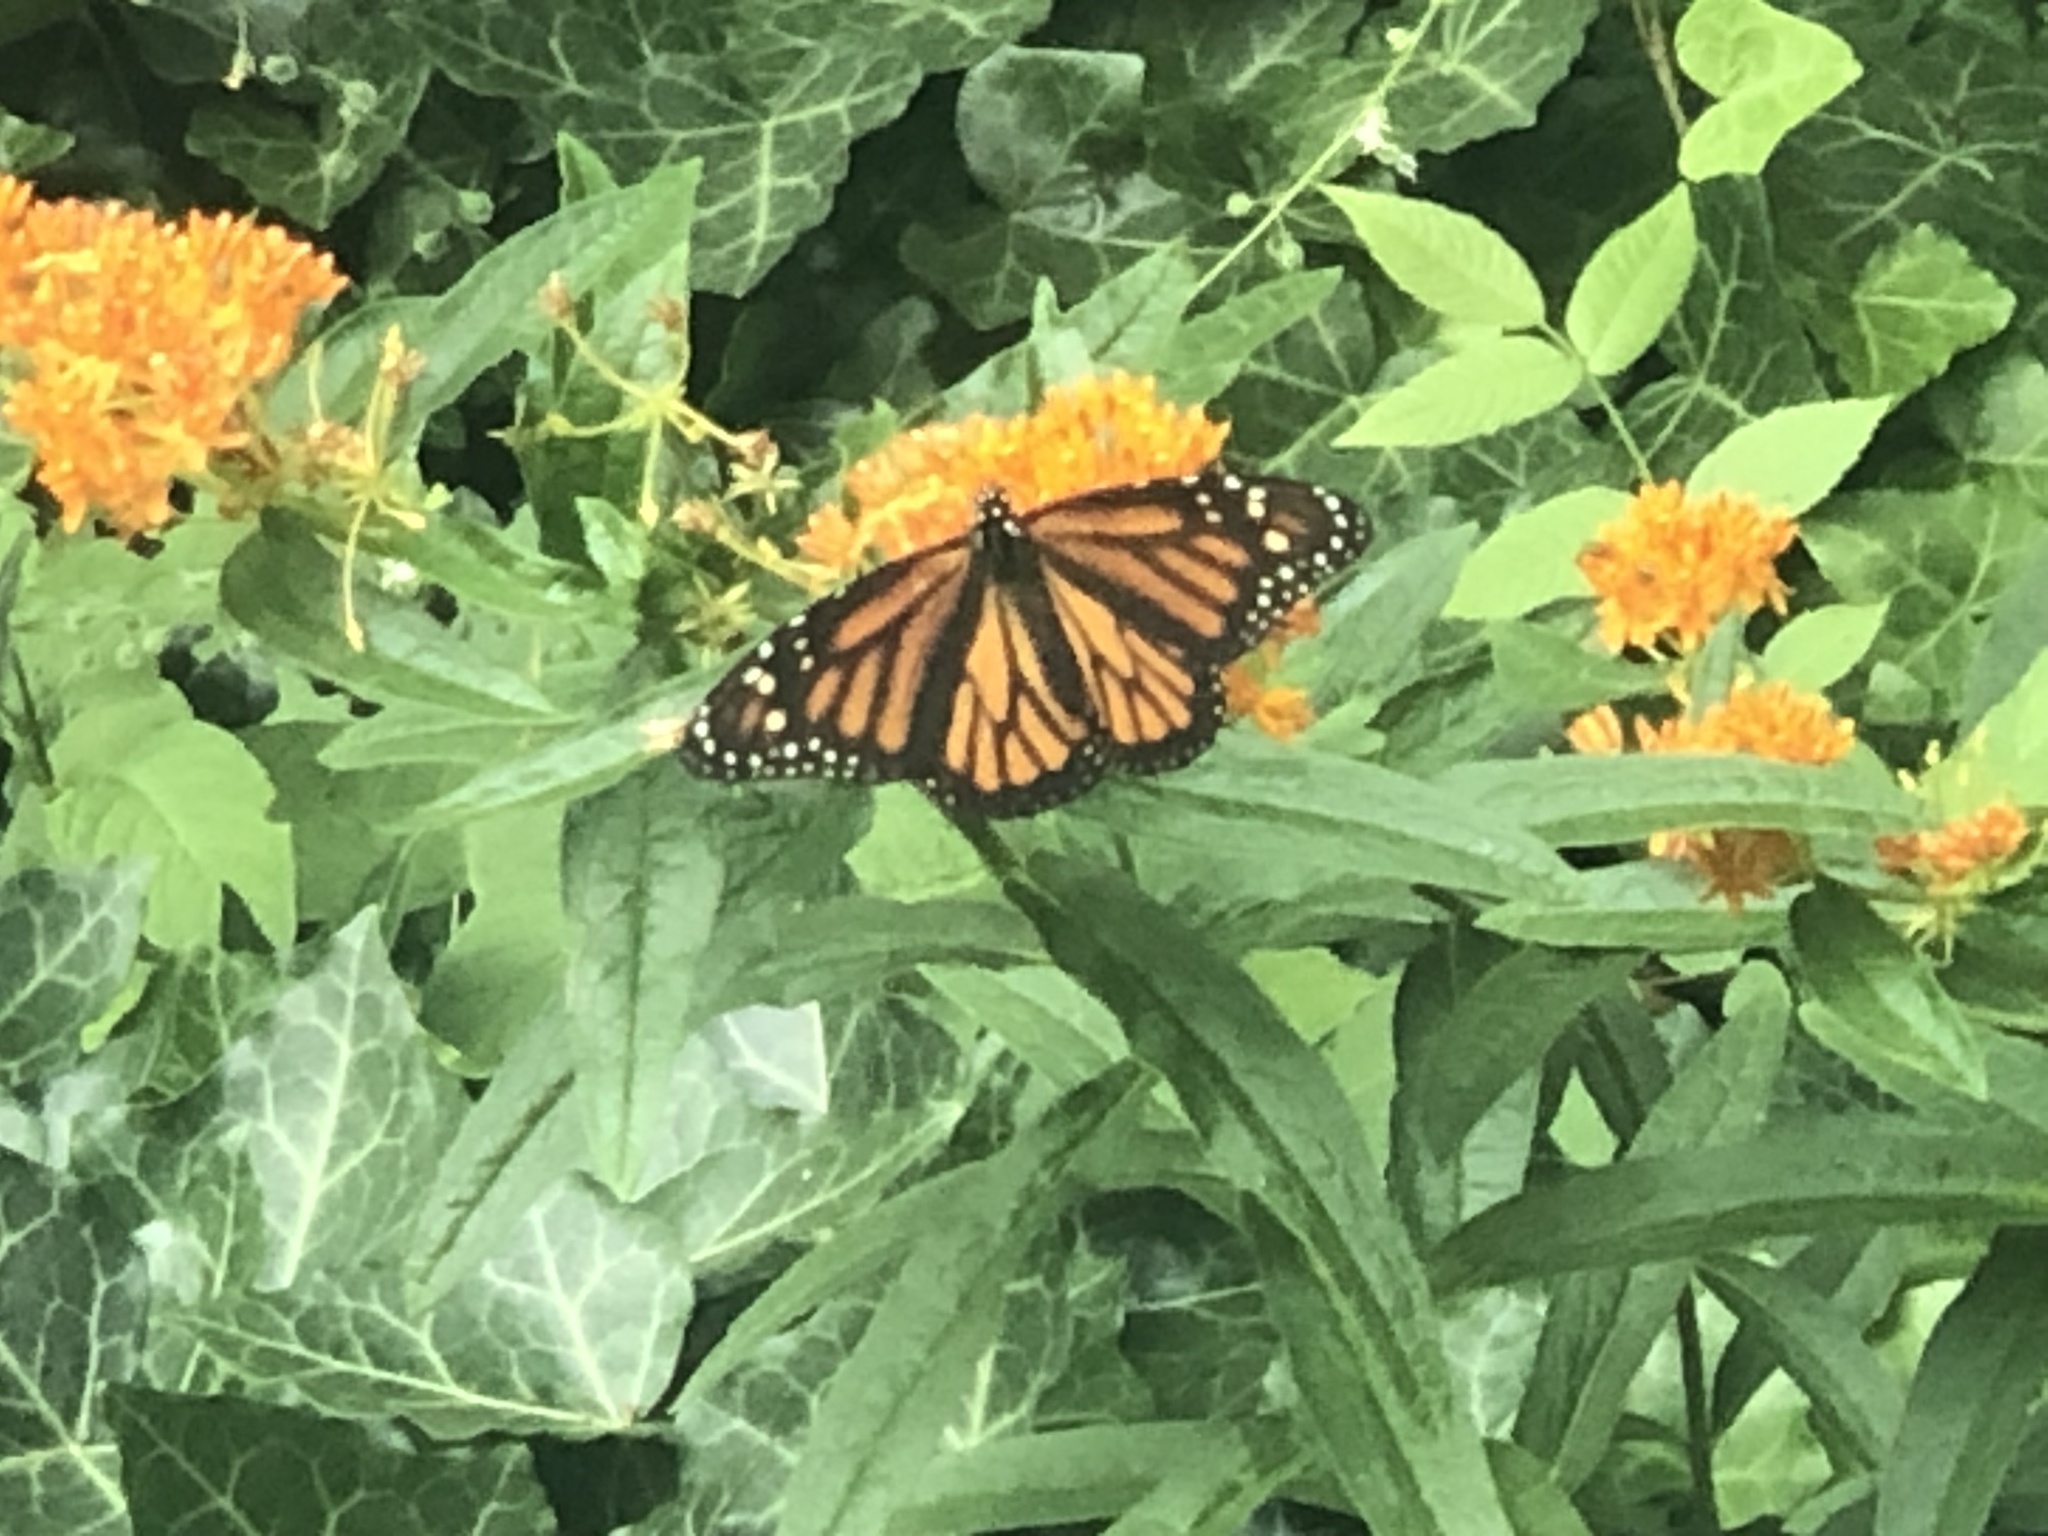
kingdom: Animalia
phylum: Arthropoda
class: Insecta
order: Lepidoptera
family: Nymphalidae
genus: Danaus
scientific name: Danaus plexippus
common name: Monarch
